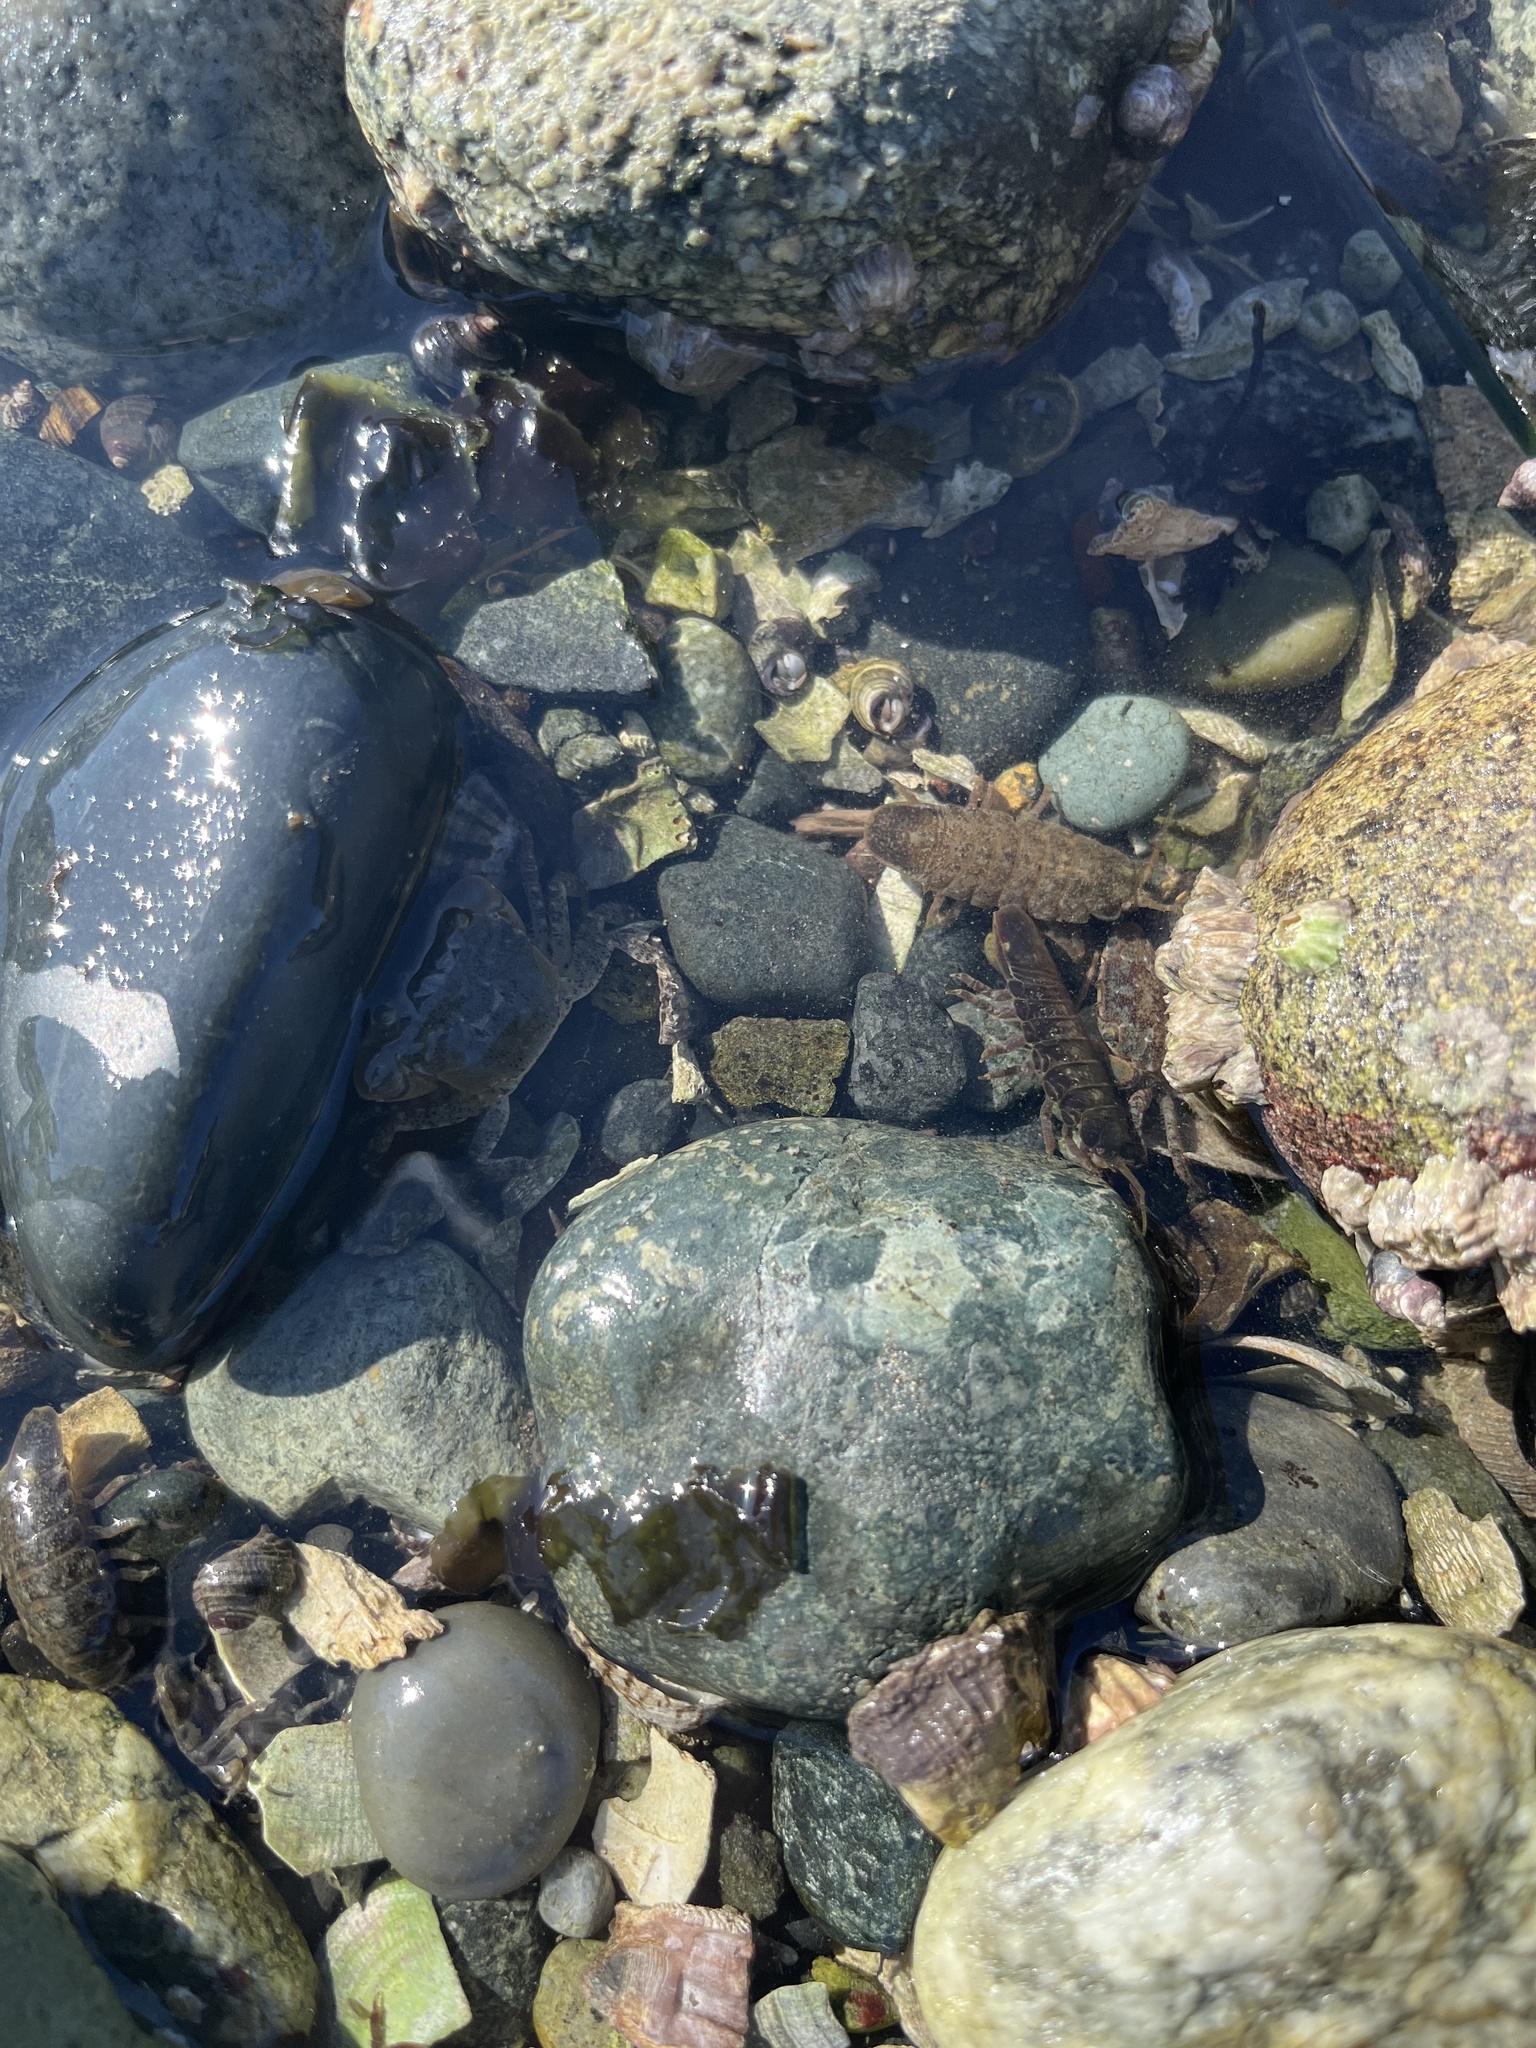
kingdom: Animalia
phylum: Arthropoda
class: Malacostraca
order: Isopoda
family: Idoteidae
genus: Pentidotea
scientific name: Pentidotea wosnesenskii
